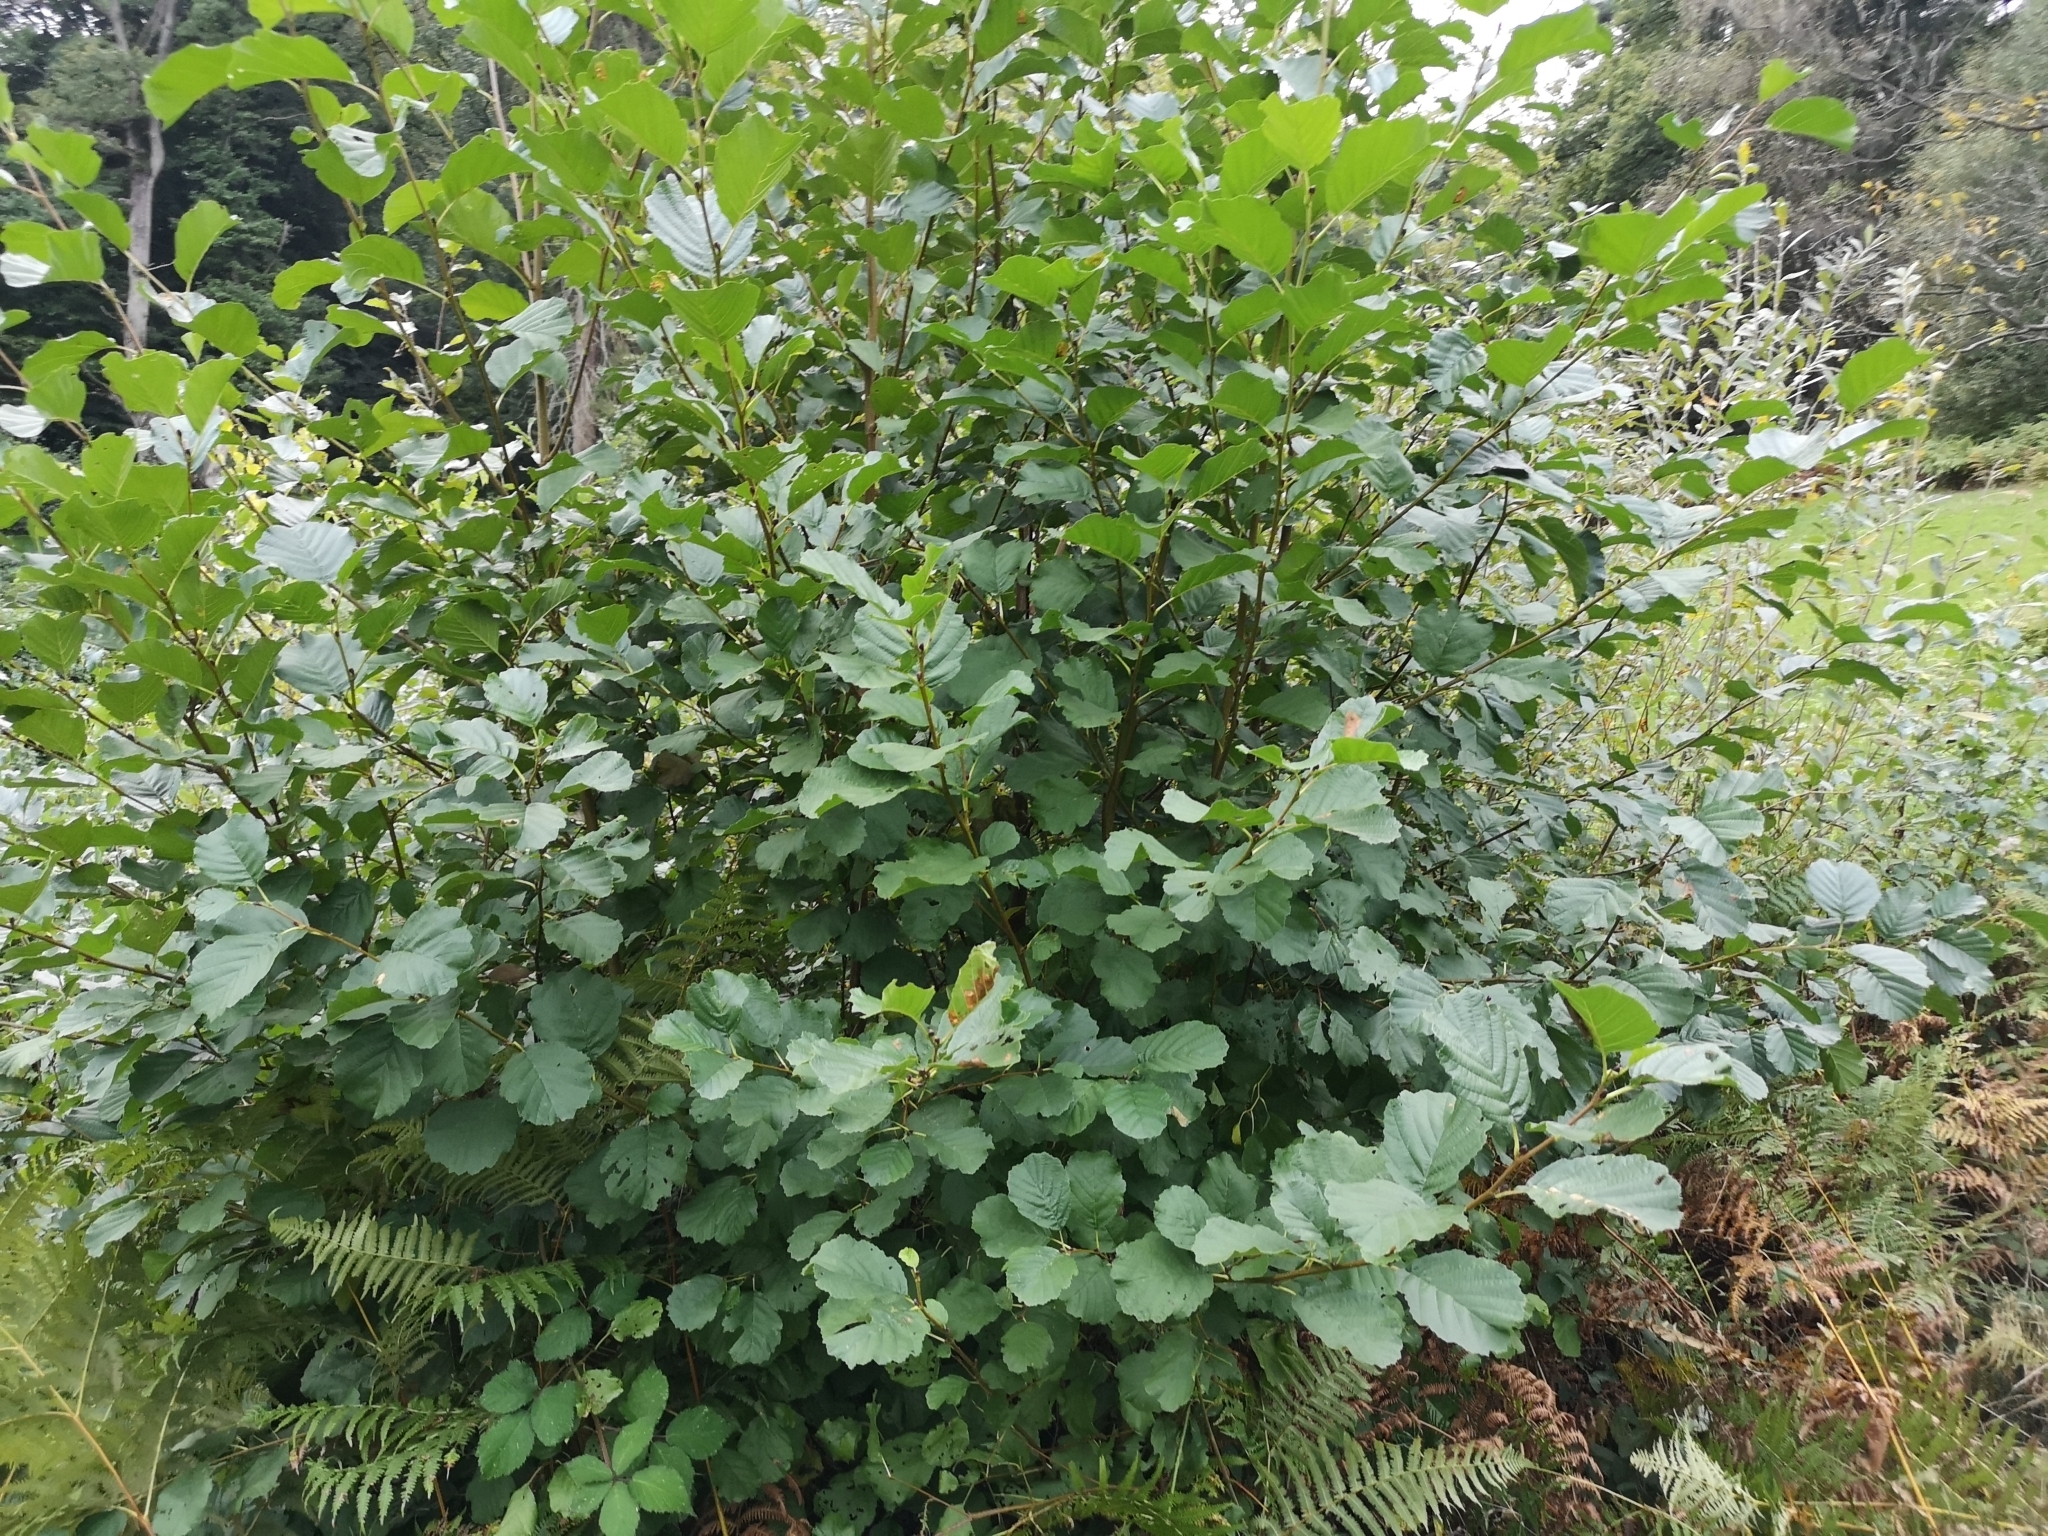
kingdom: Plantae
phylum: Tracheophyta
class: Magnoliopsida
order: Fagales
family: Betulaceae
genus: Alnus
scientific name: Alnus glutinosa
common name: Black alder
